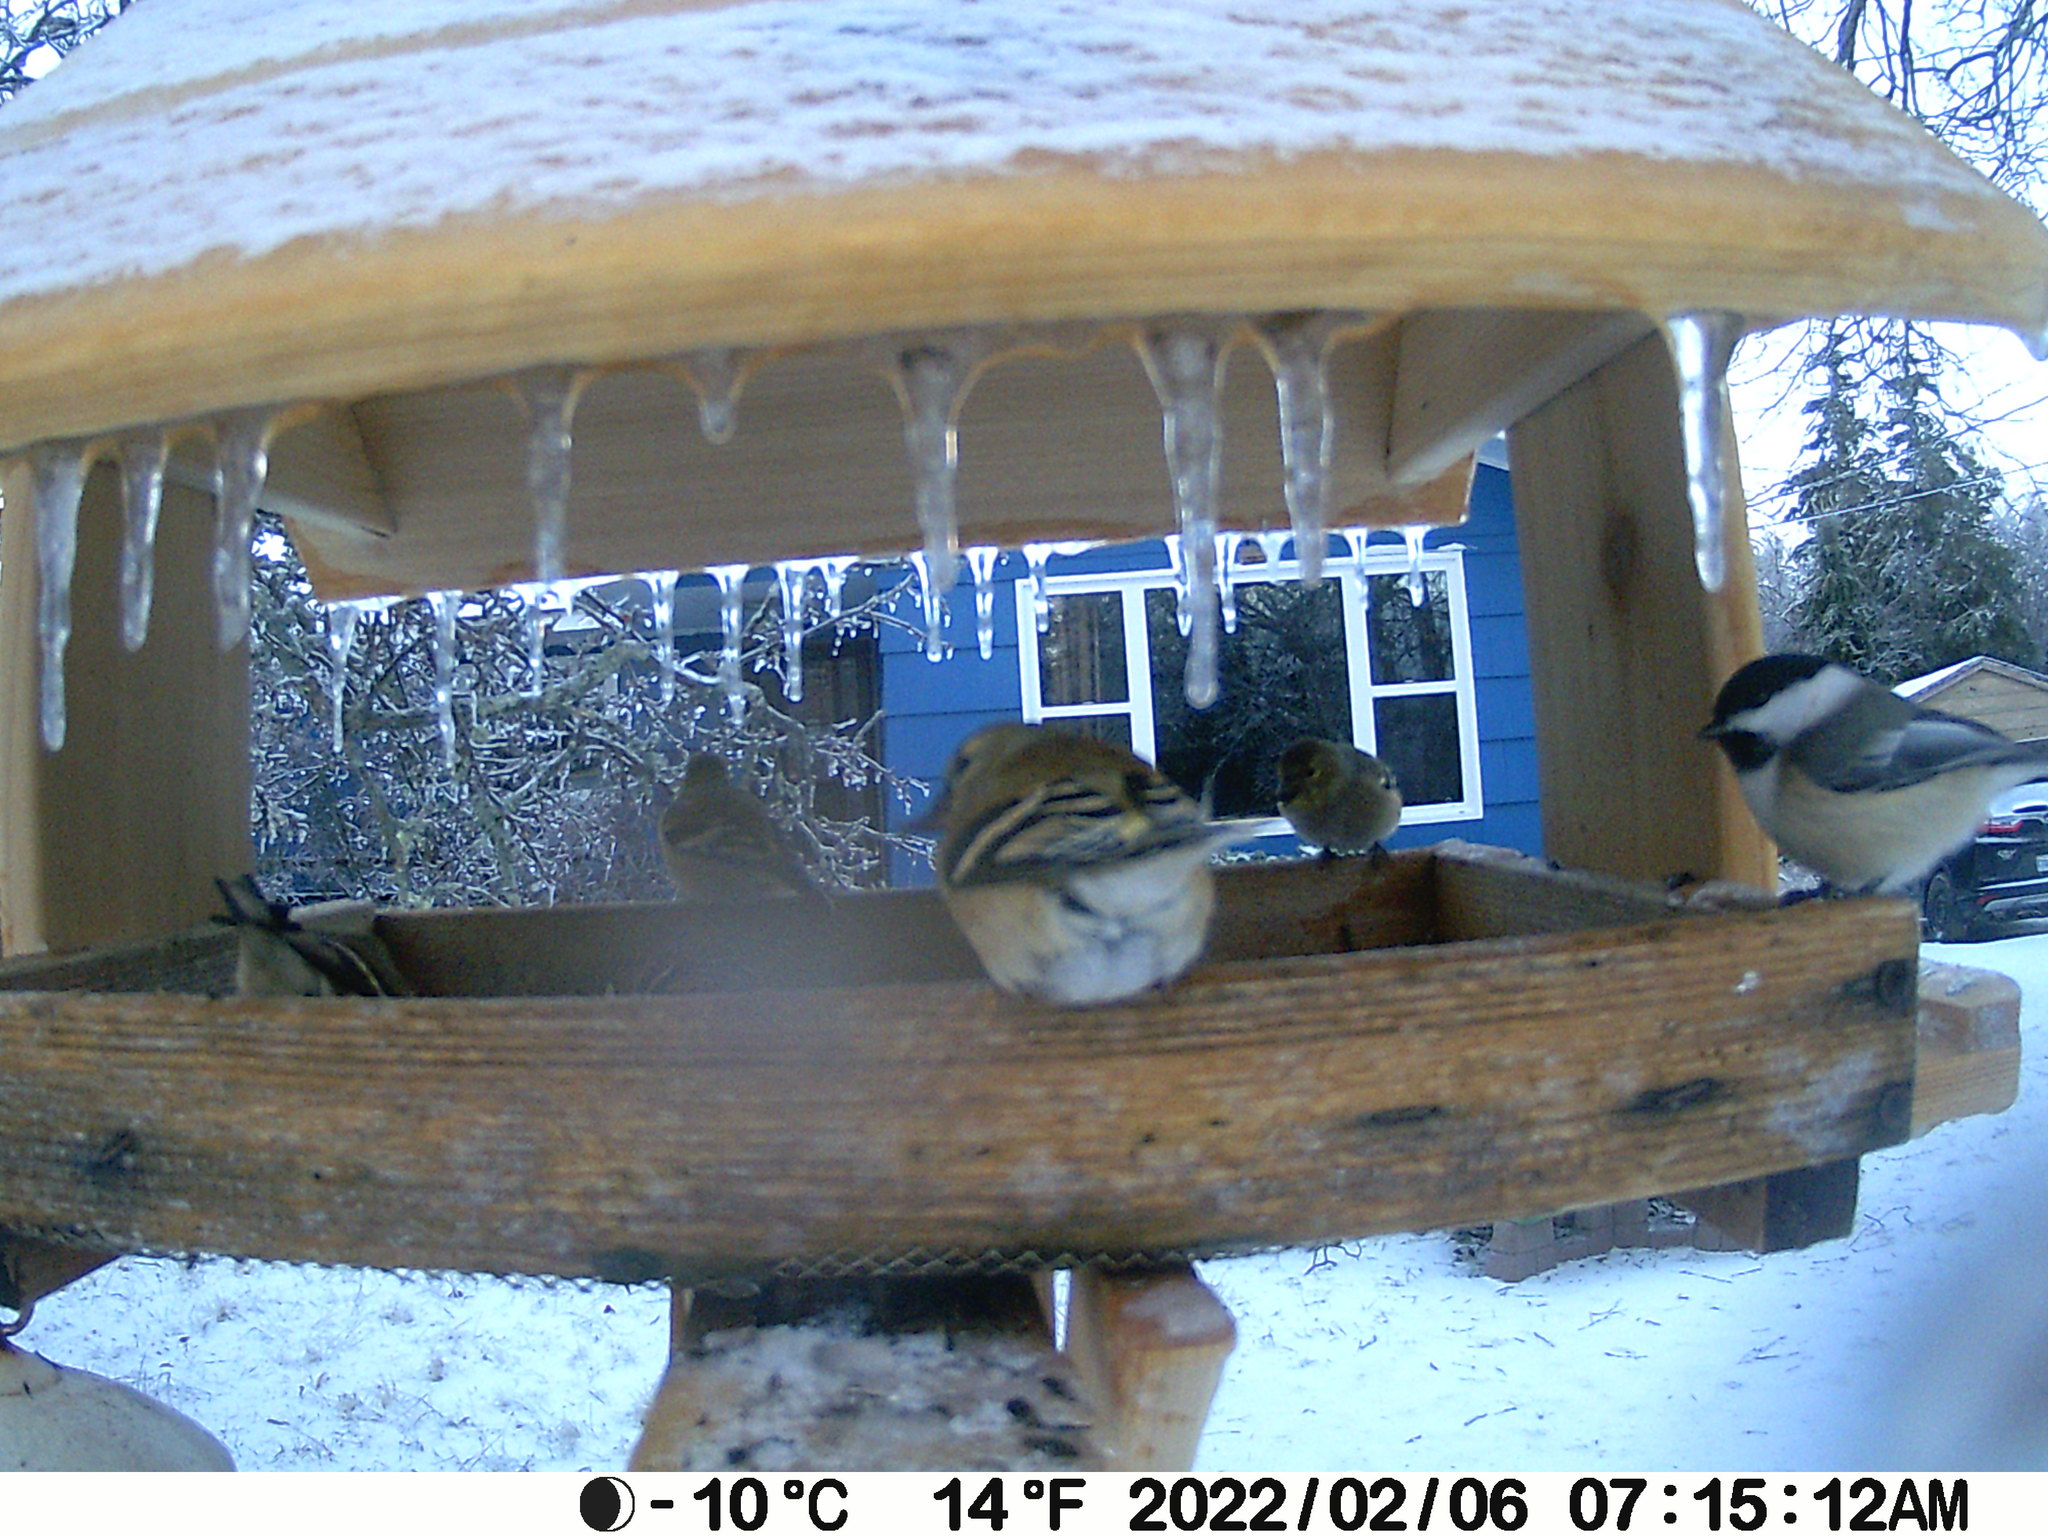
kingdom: Animalia
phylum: Chordata
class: Aves
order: Passeriformes
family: Paridae
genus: Poecile
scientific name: Poecile atricapillus
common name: Black-capped chickadee
